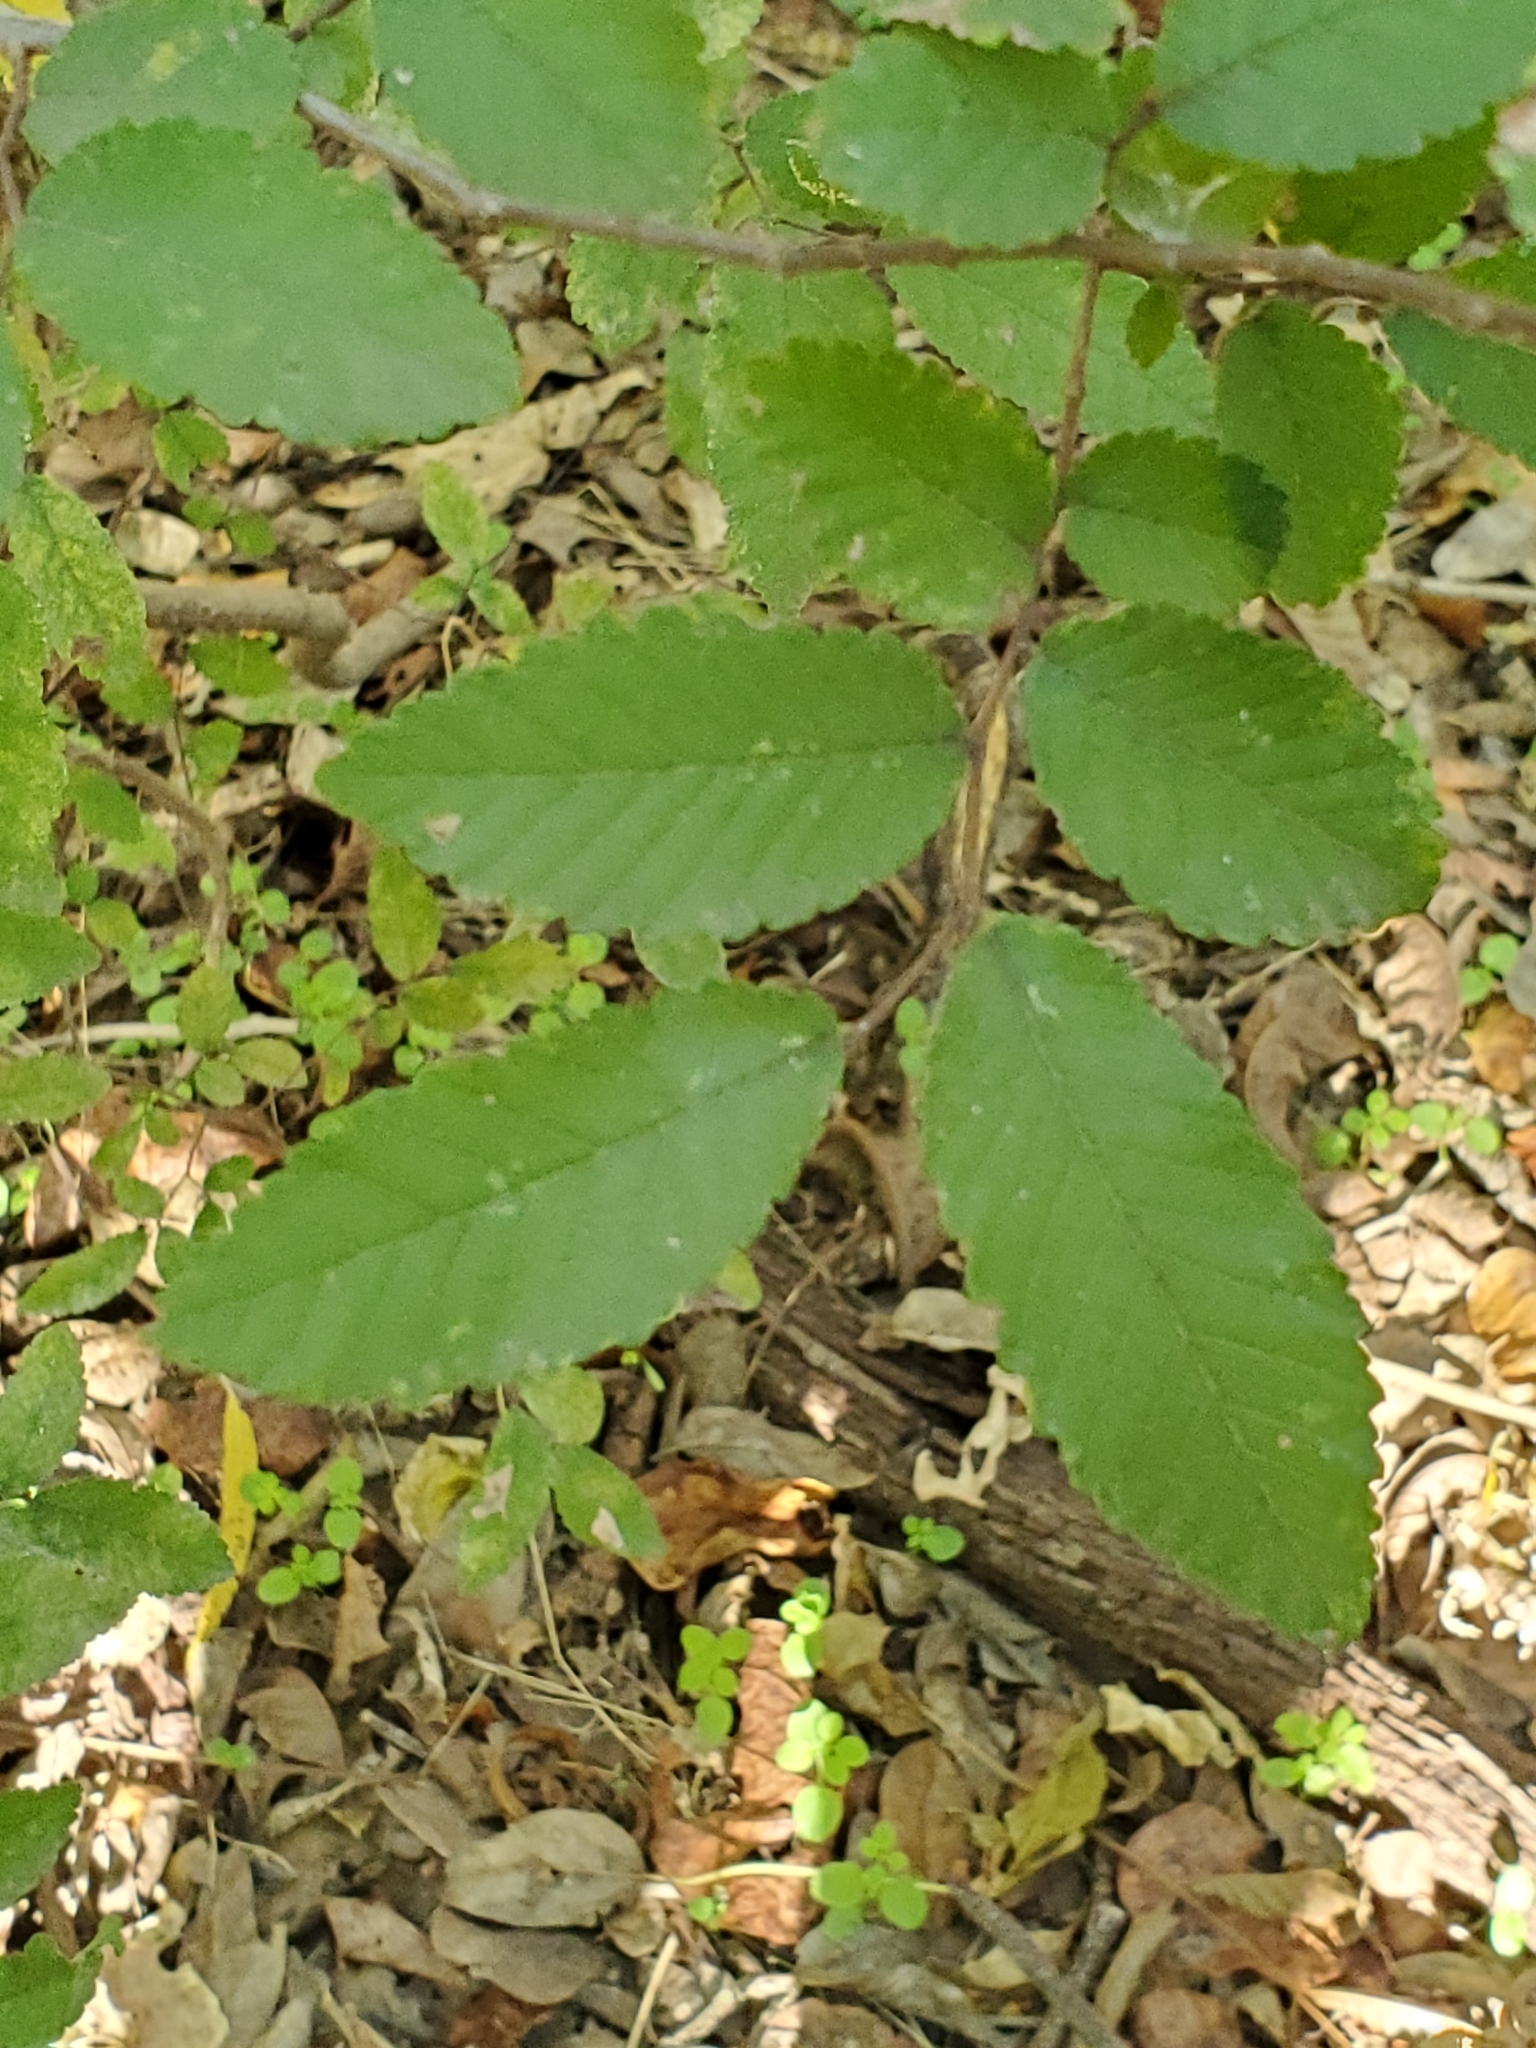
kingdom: Plantae
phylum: Tracheophyta
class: Magnoliopsida
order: Rosales
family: Ulmaceae
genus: Ulmus
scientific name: Ulmus crassifolia
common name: Basket elm
